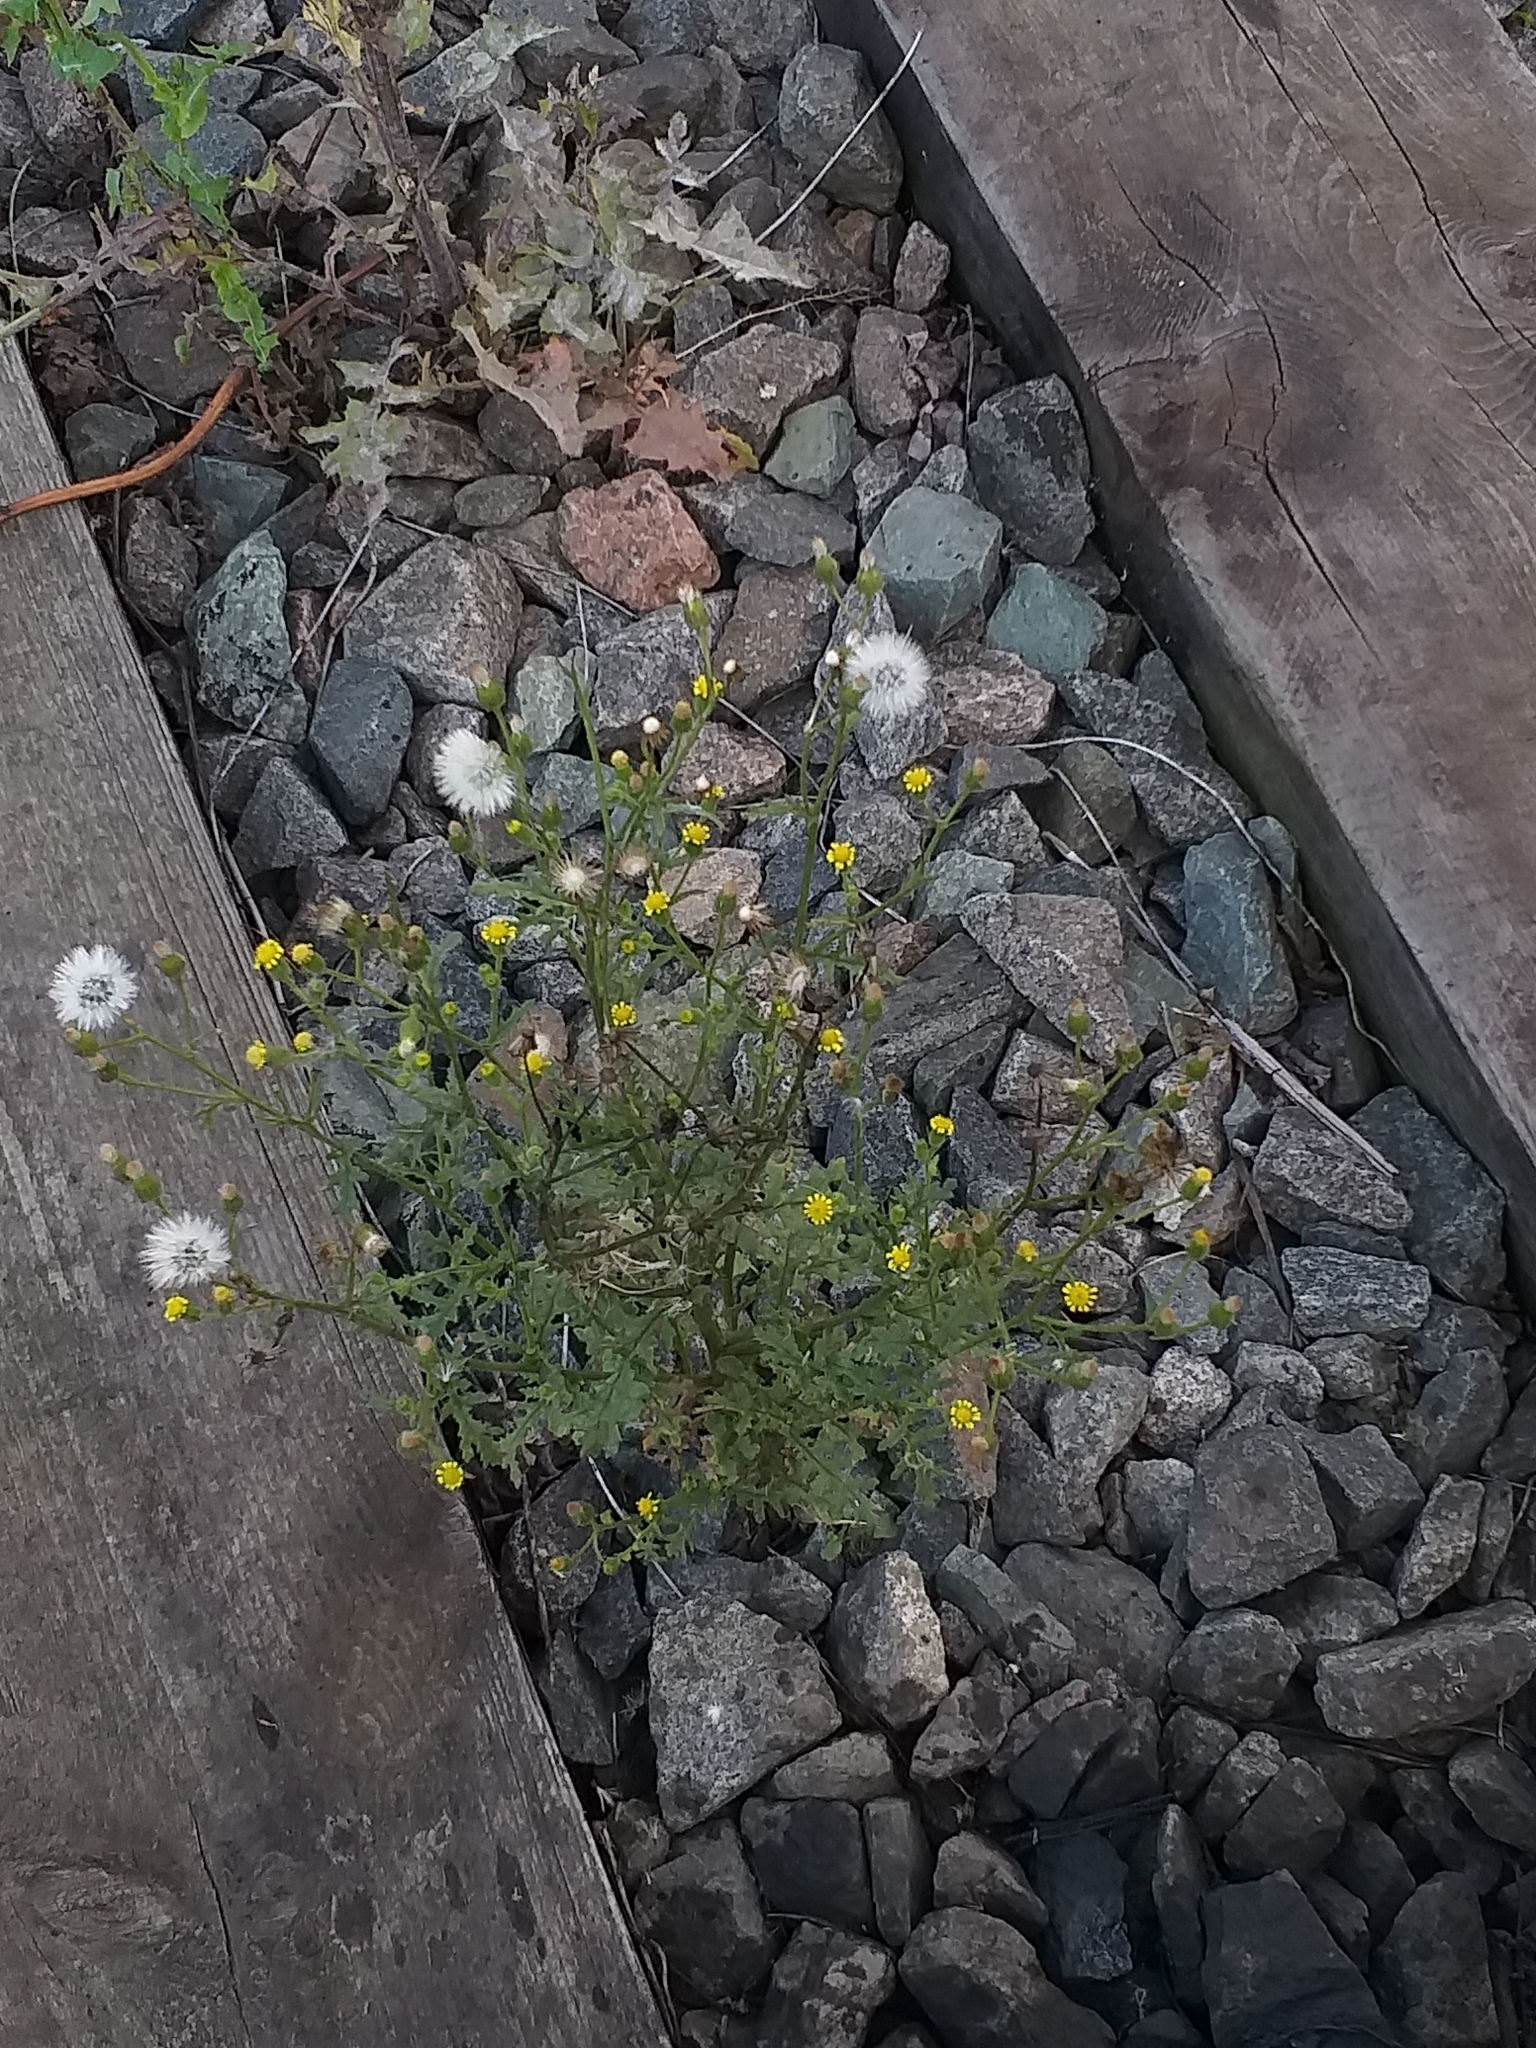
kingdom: Plantae
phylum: Tracheophyta
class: Magnoliopsida
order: Asterales
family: Asteraceae
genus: Senecio
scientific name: Senecio viscosus
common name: Sticky groundsel
